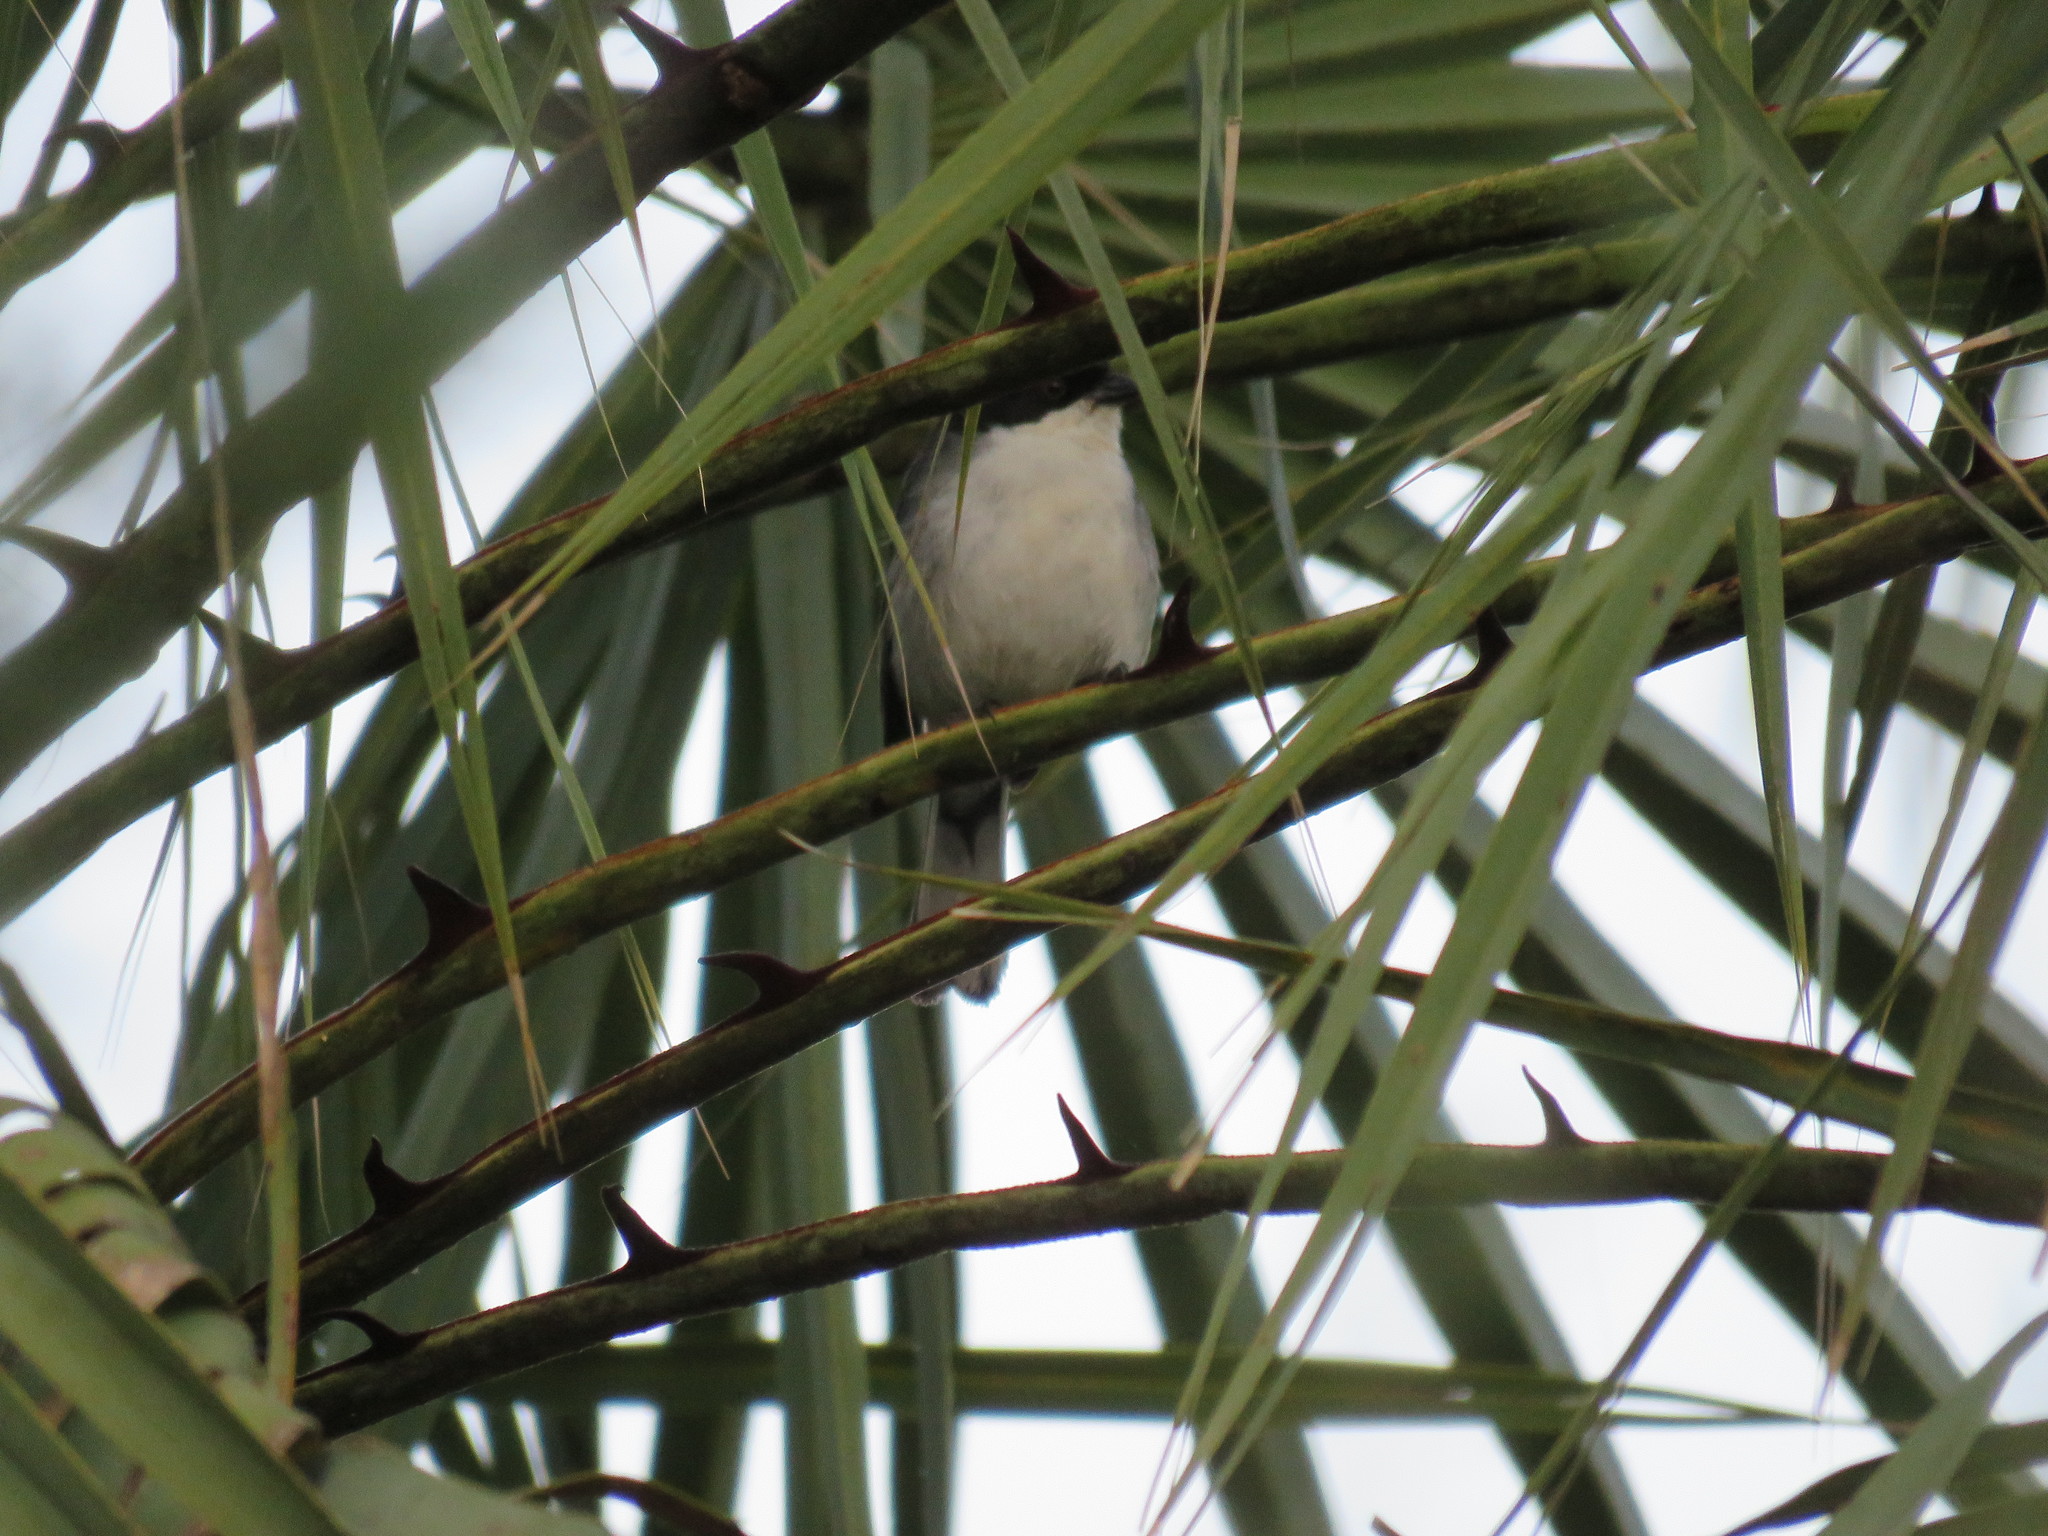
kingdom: Animalia
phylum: Chordata
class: Aves
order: Passeriformes
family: Thraupidae
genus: Microspingus
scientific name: Microspingus melanoleucus
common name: Black-capped warbling-finch
